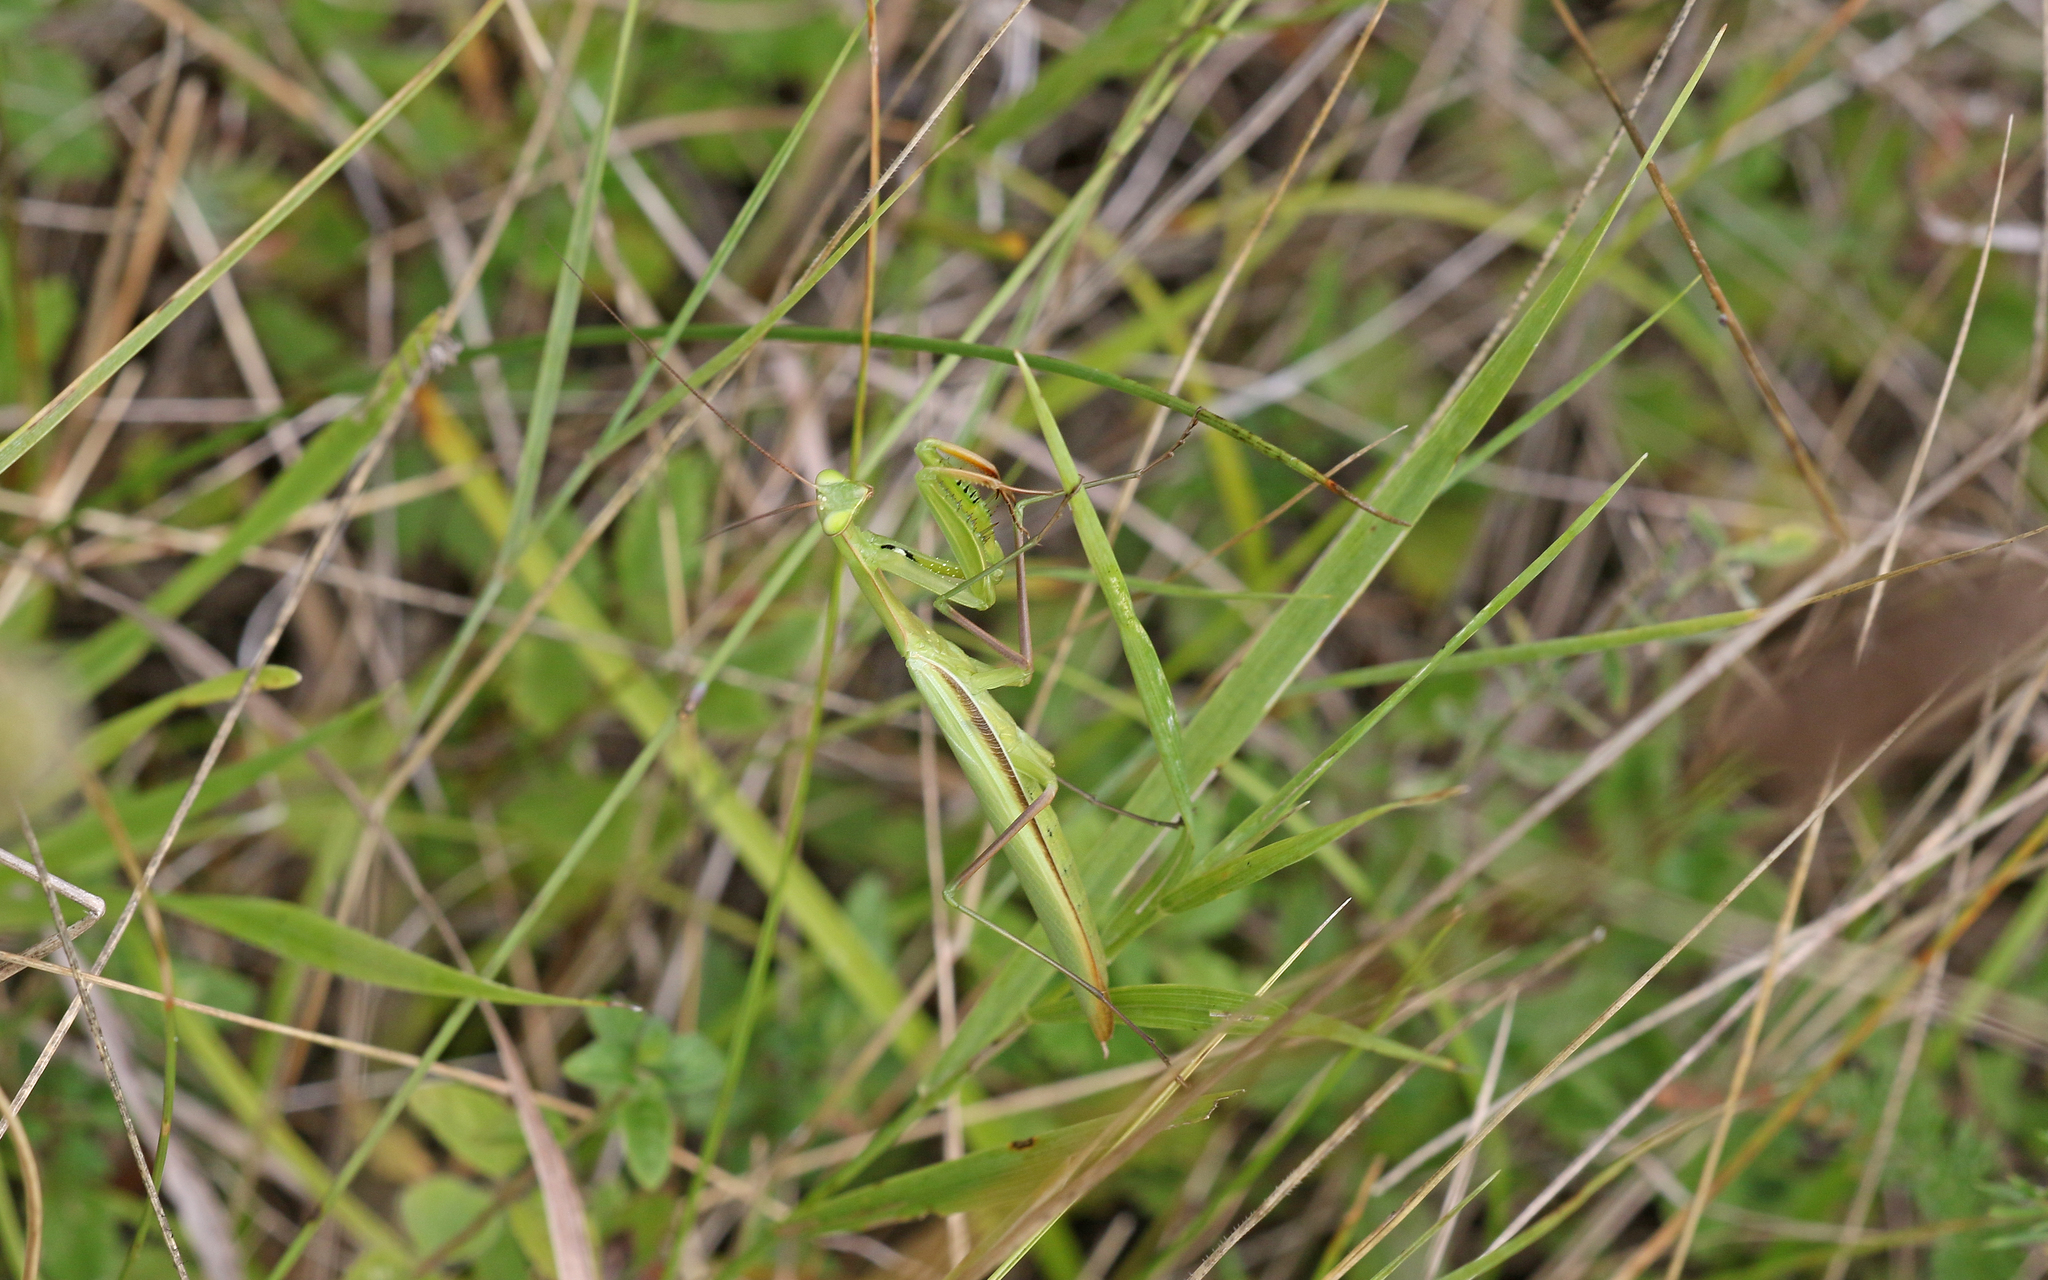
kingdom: Animalia
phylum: Arthropoda
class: Insecta
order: Mantodea
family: Mantidae
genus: Mantis
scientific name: Mantis religiosa
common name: Praying mantis
